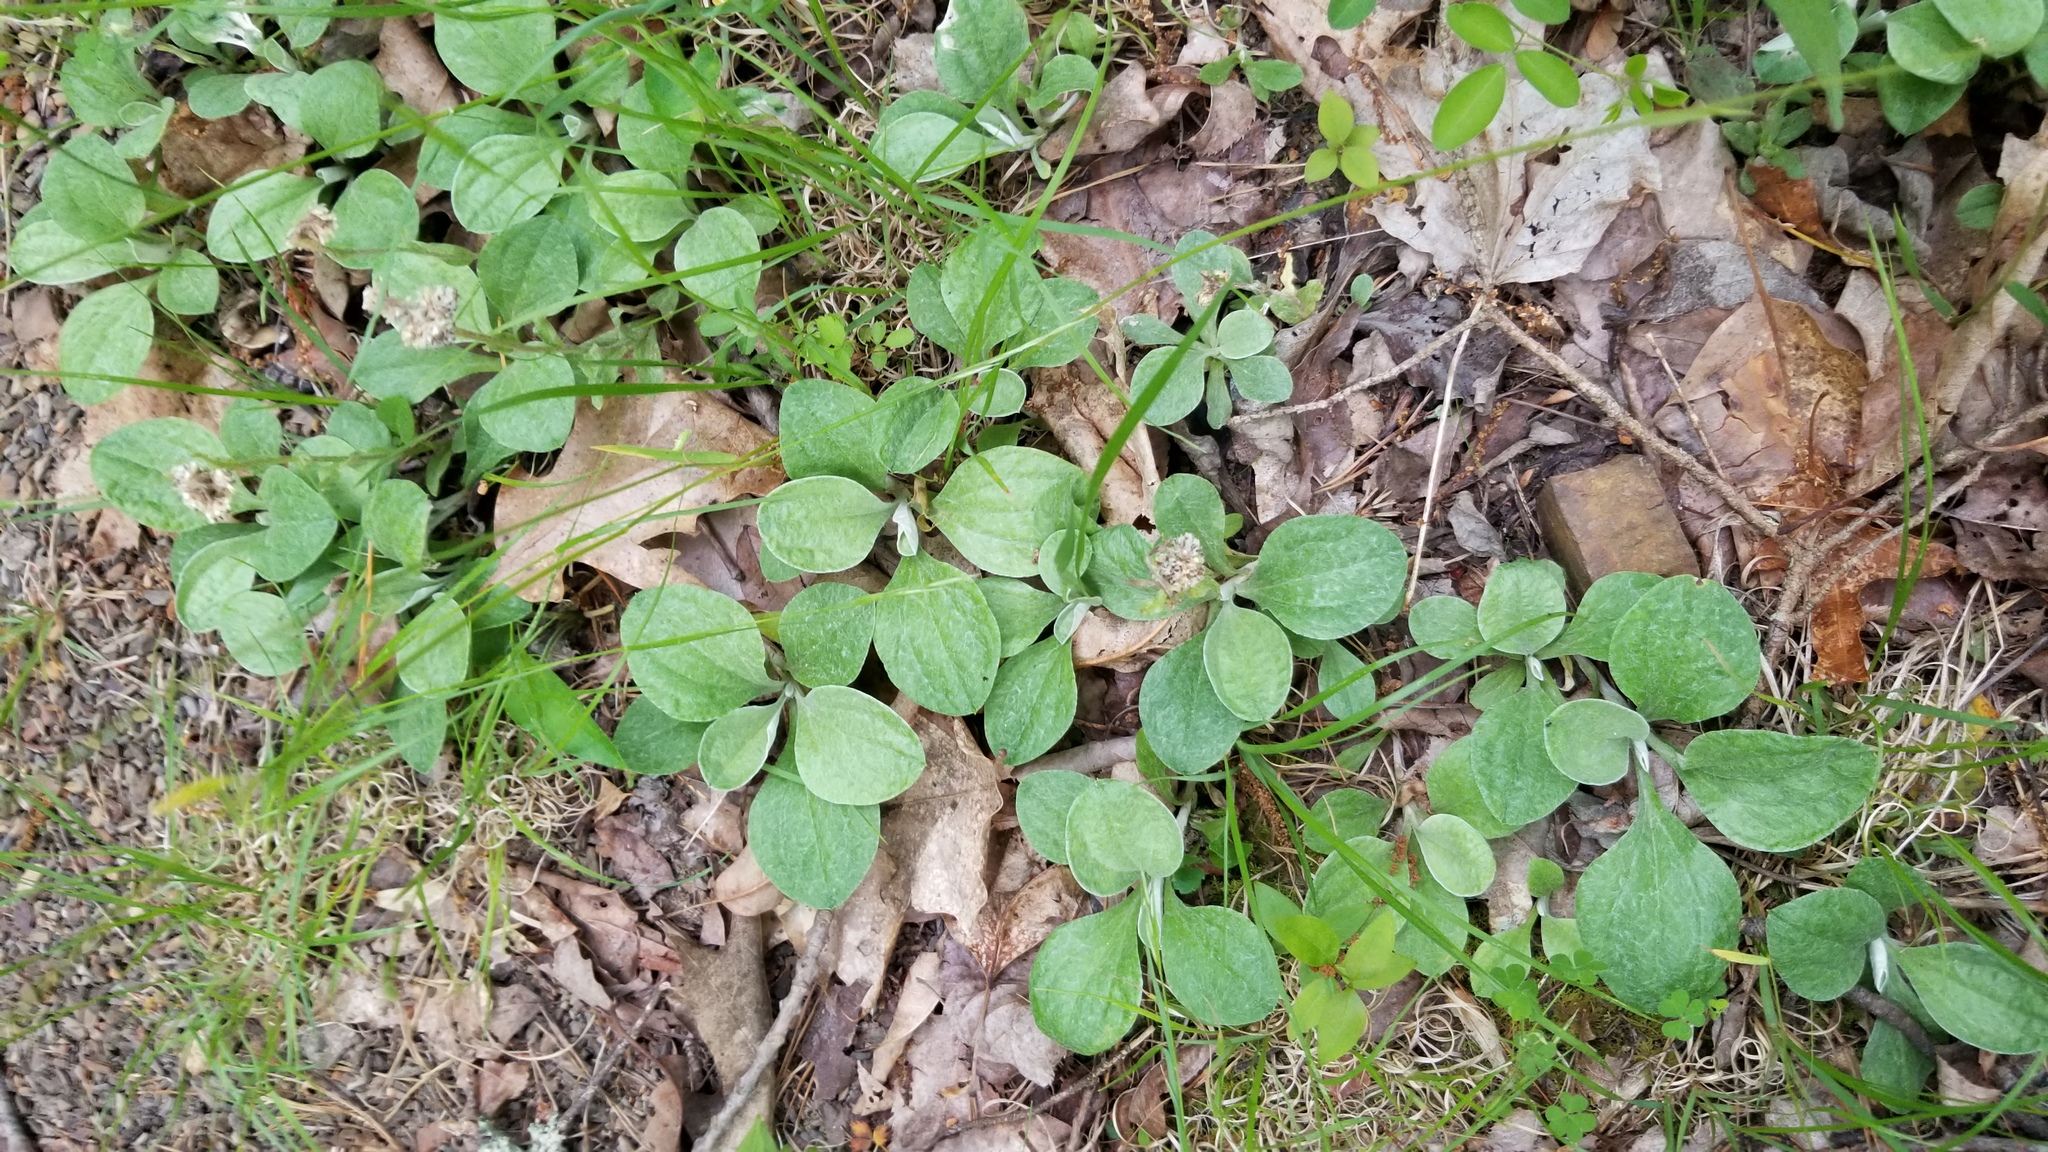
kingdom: Plantae
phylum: Tracheophyta
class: Magnoliopsida
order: Asterales
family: Asteraceae
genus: Antennaria
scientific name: Antennaria plantaginifolia
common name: Plantain-leaved pussytoes
